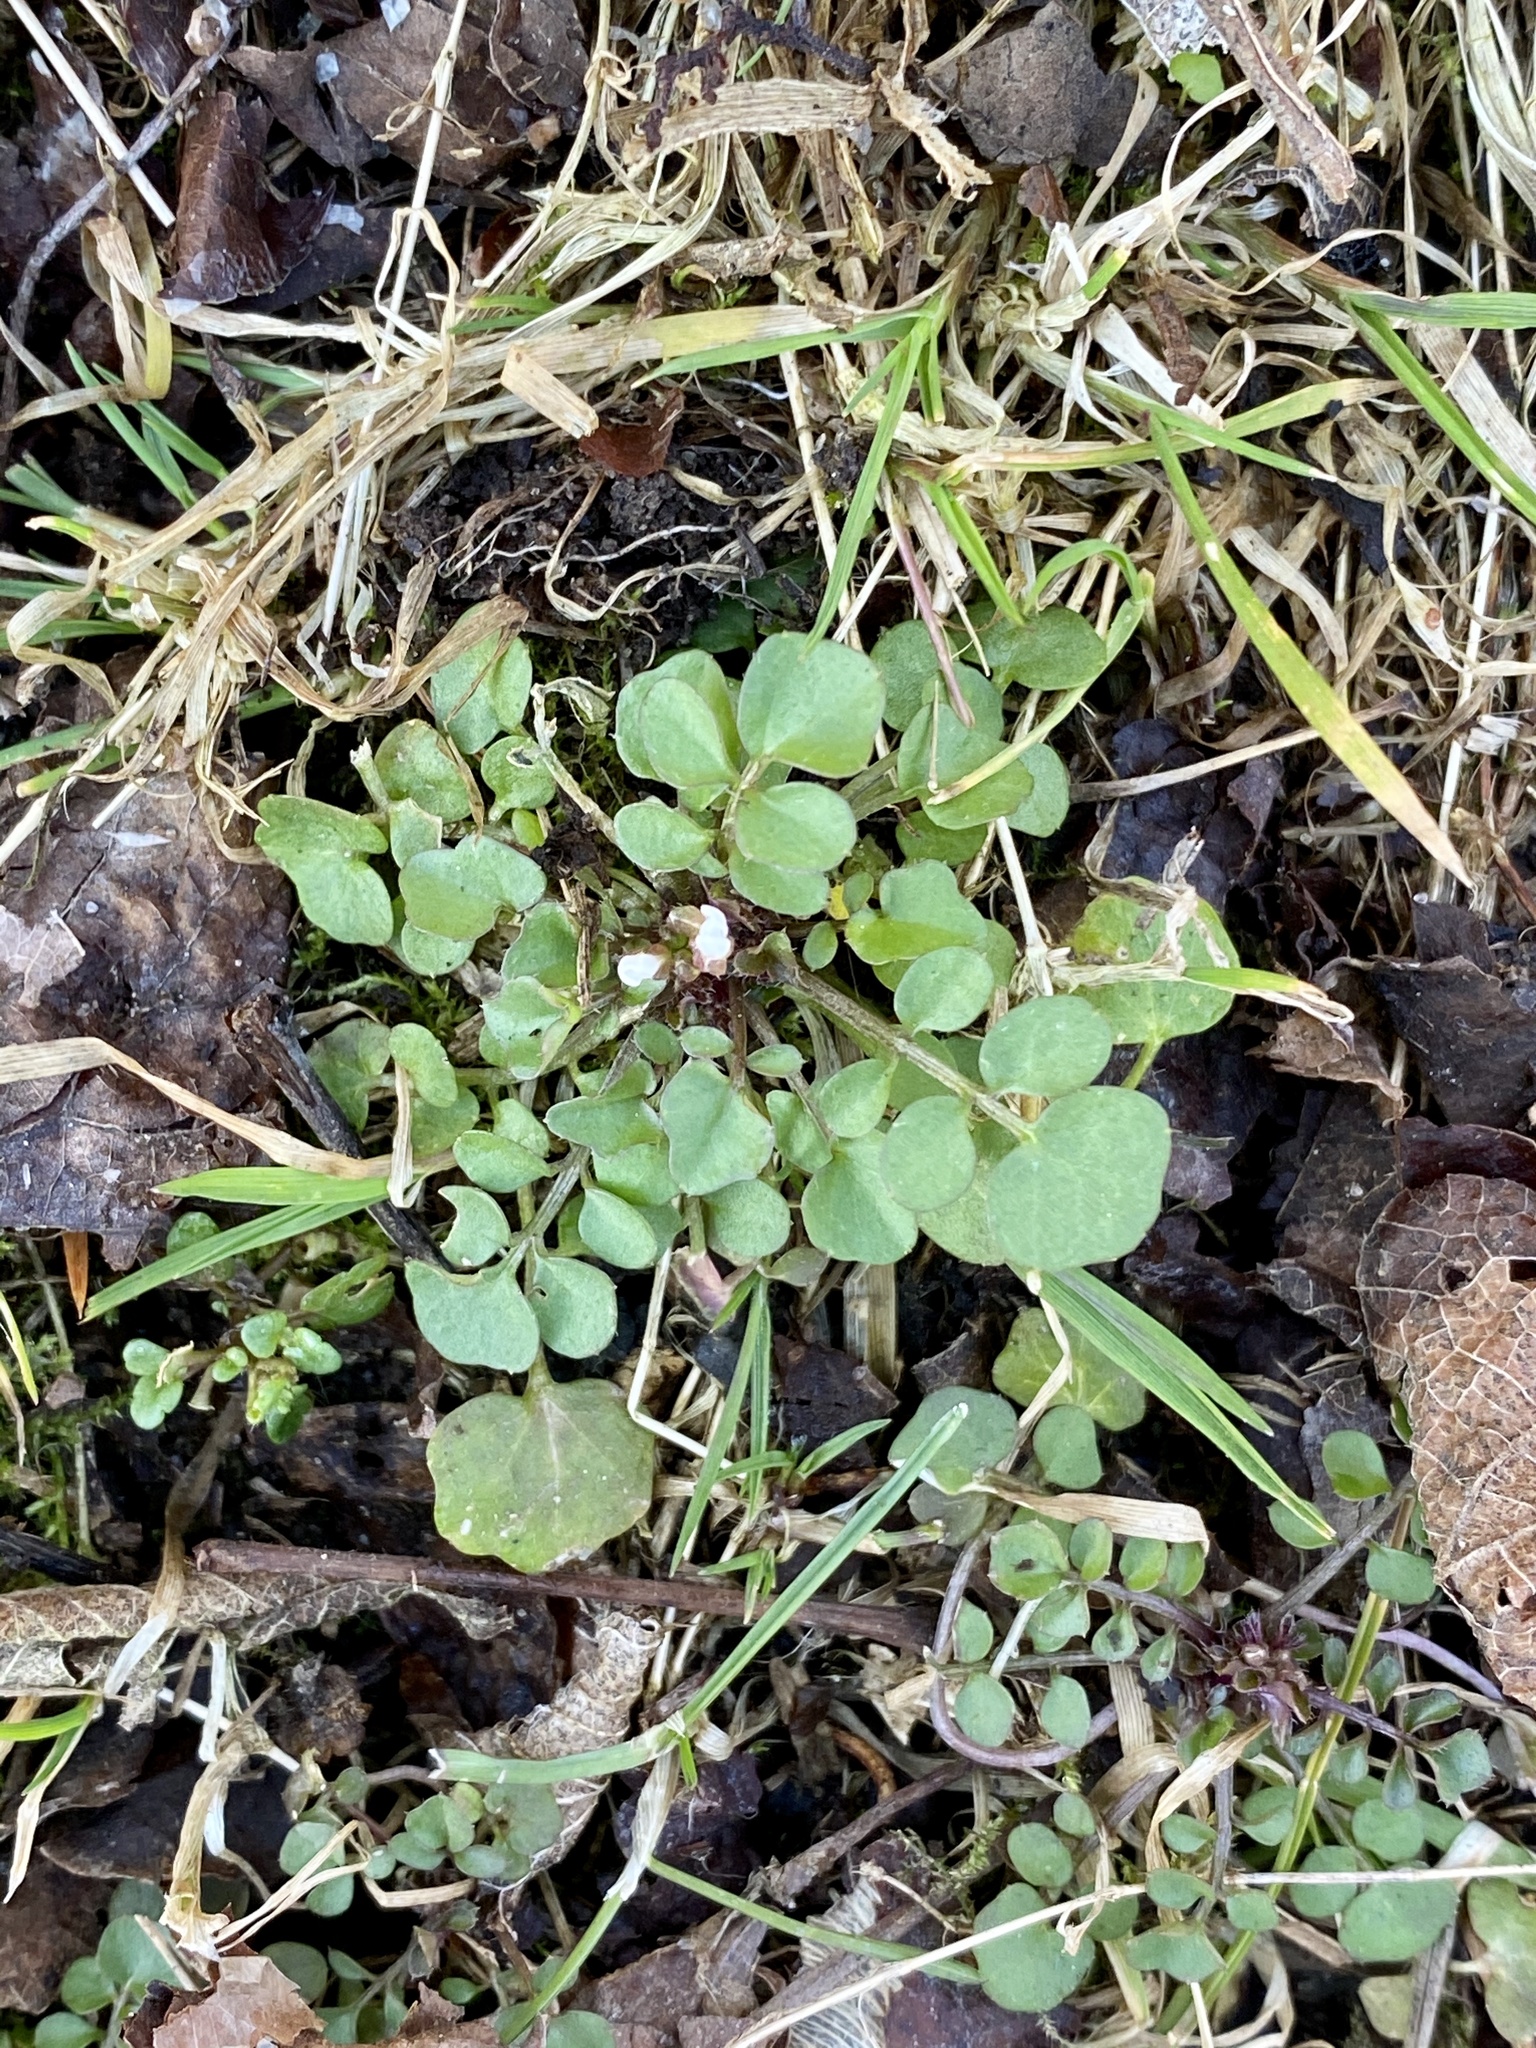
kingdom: Plantae
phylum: Tracheophyta
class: Magnoliopsida
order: Brassicales
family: Brassicaceae
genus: Cardamine
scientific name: Cardamine hirsuta
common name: Hairy bittercress
